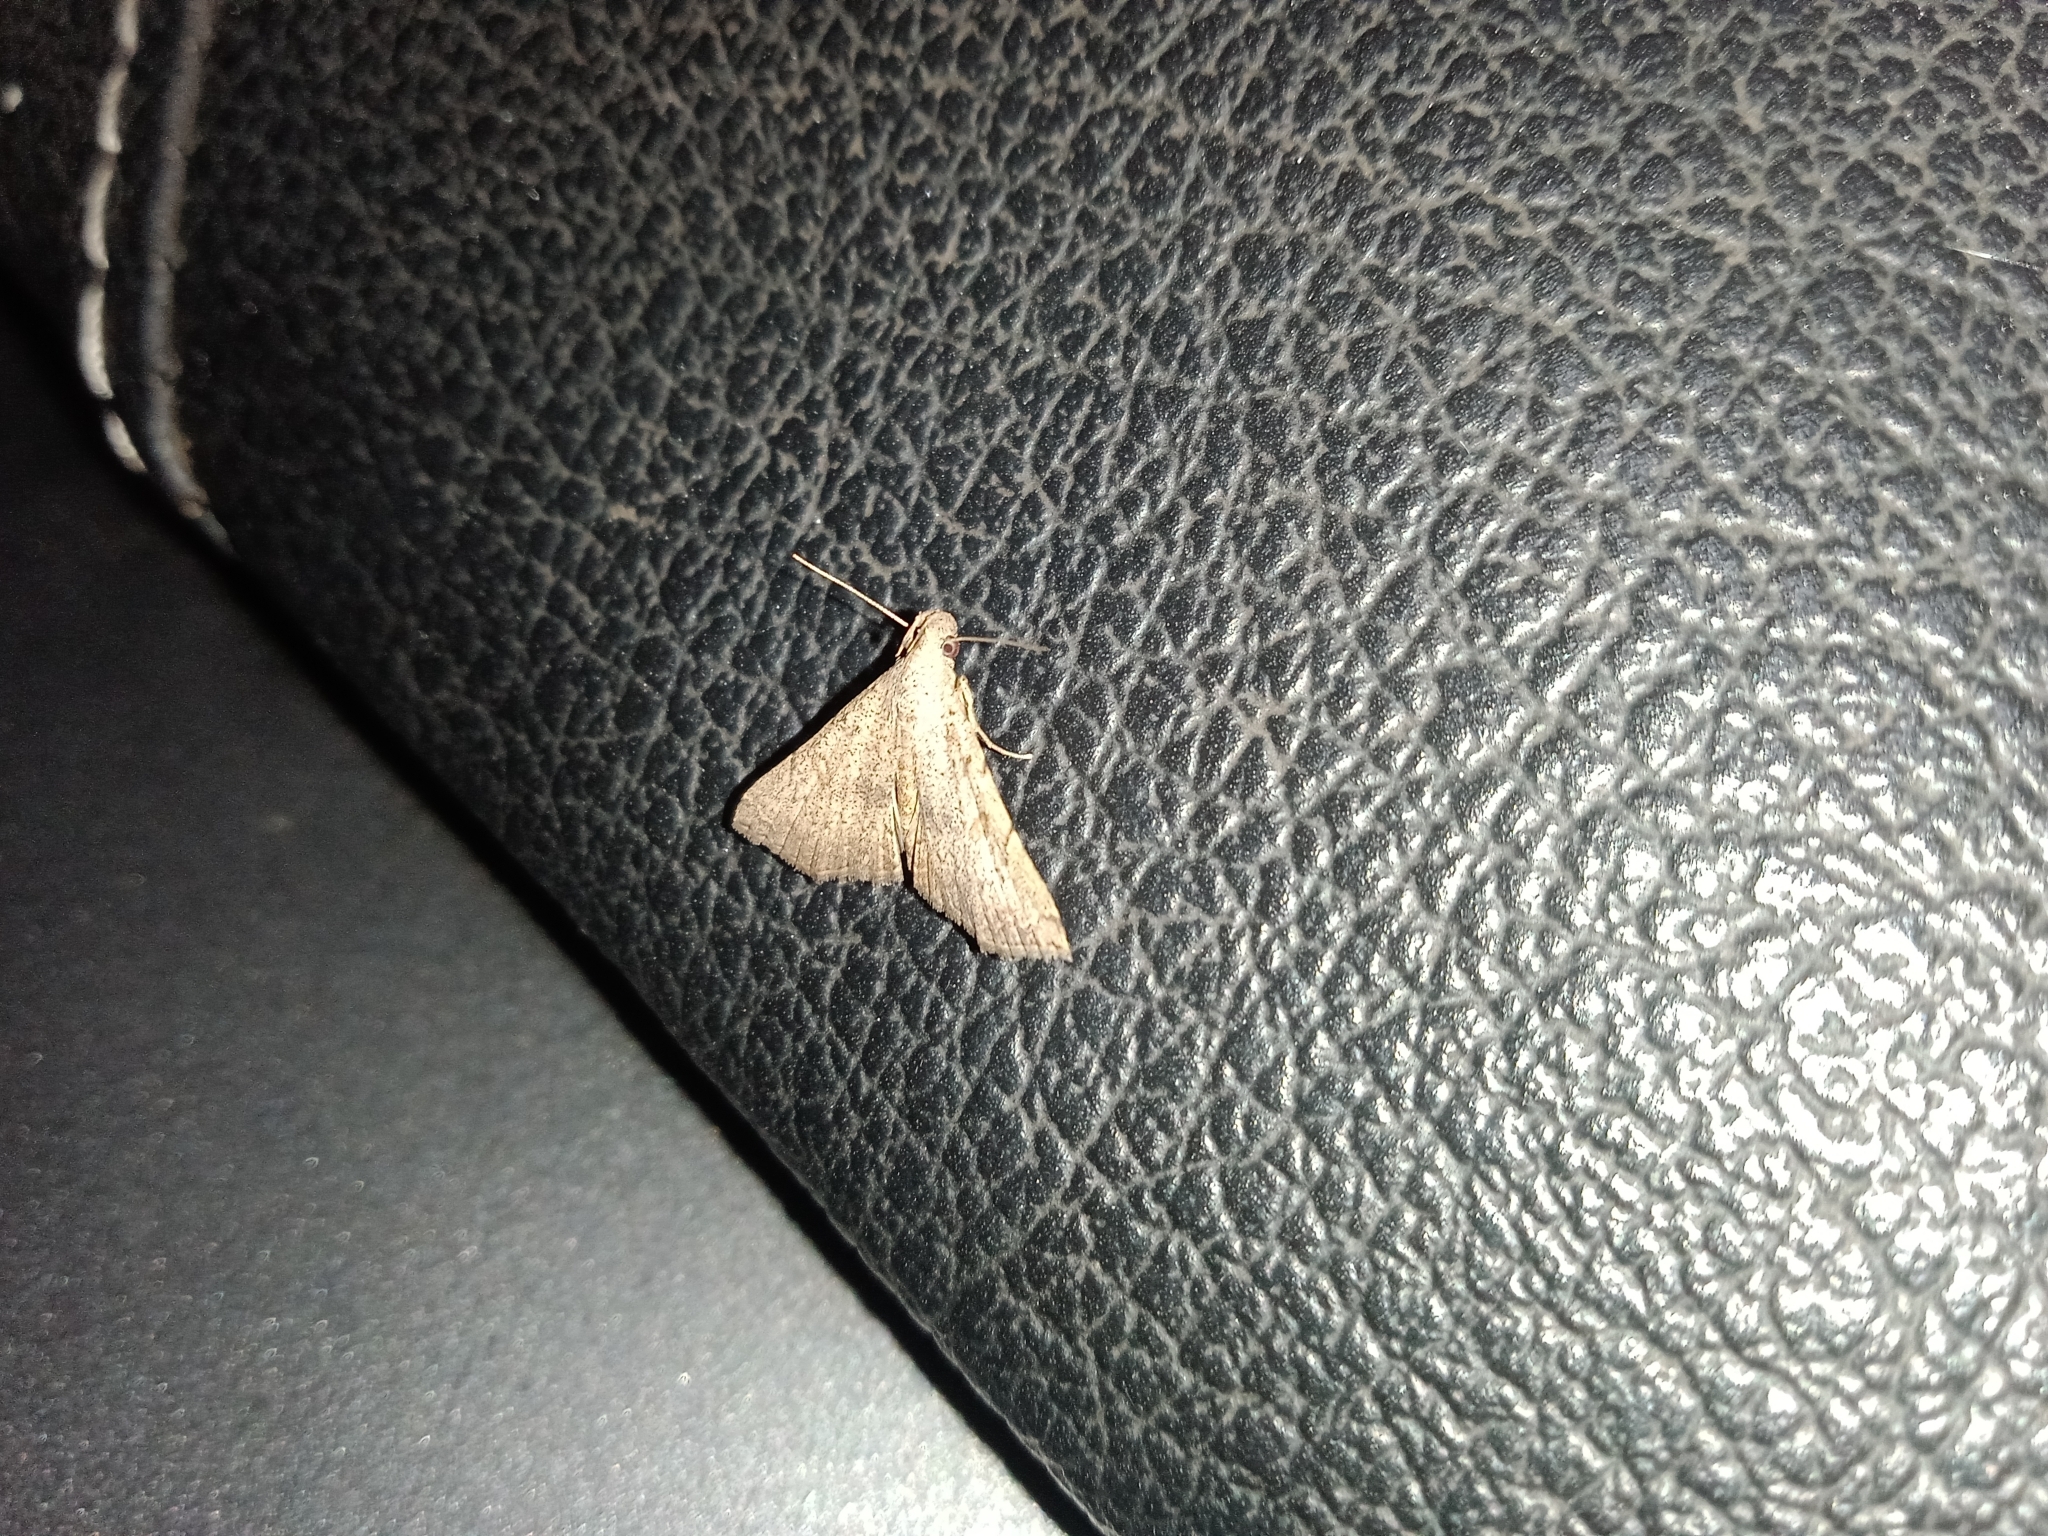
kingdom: Animalia
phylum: Arthropoda
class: Insecta
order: Lepidoptera
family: Erebidae
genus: Progonia
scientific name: Progonia oileusalis
